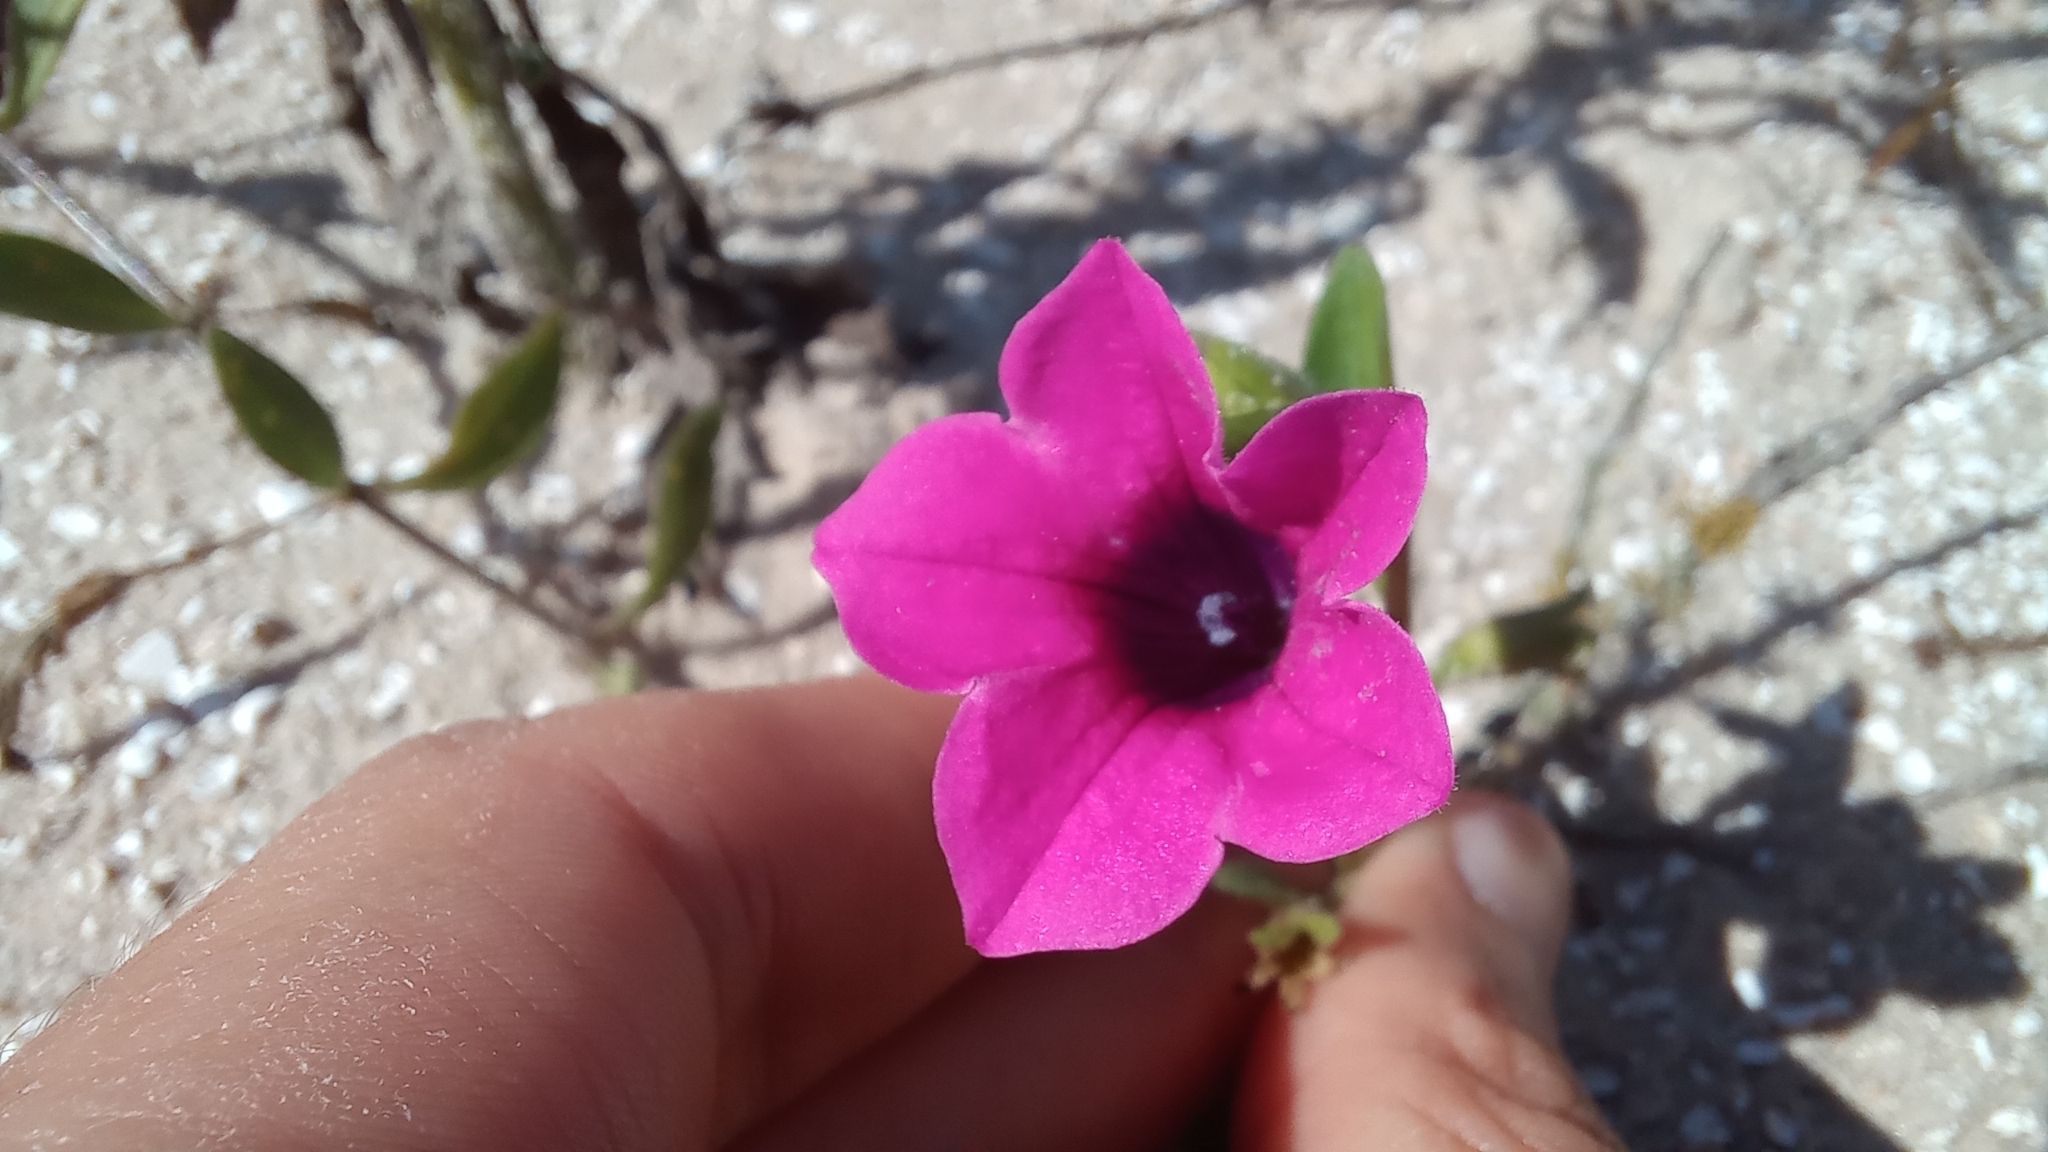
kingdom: Plantae
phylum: Tracheophyta
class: Magnoliopsida
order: Solanales
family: Solanaceae
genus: Petunia
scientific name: Petunia integrifolia
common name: Violet-flower petunia
